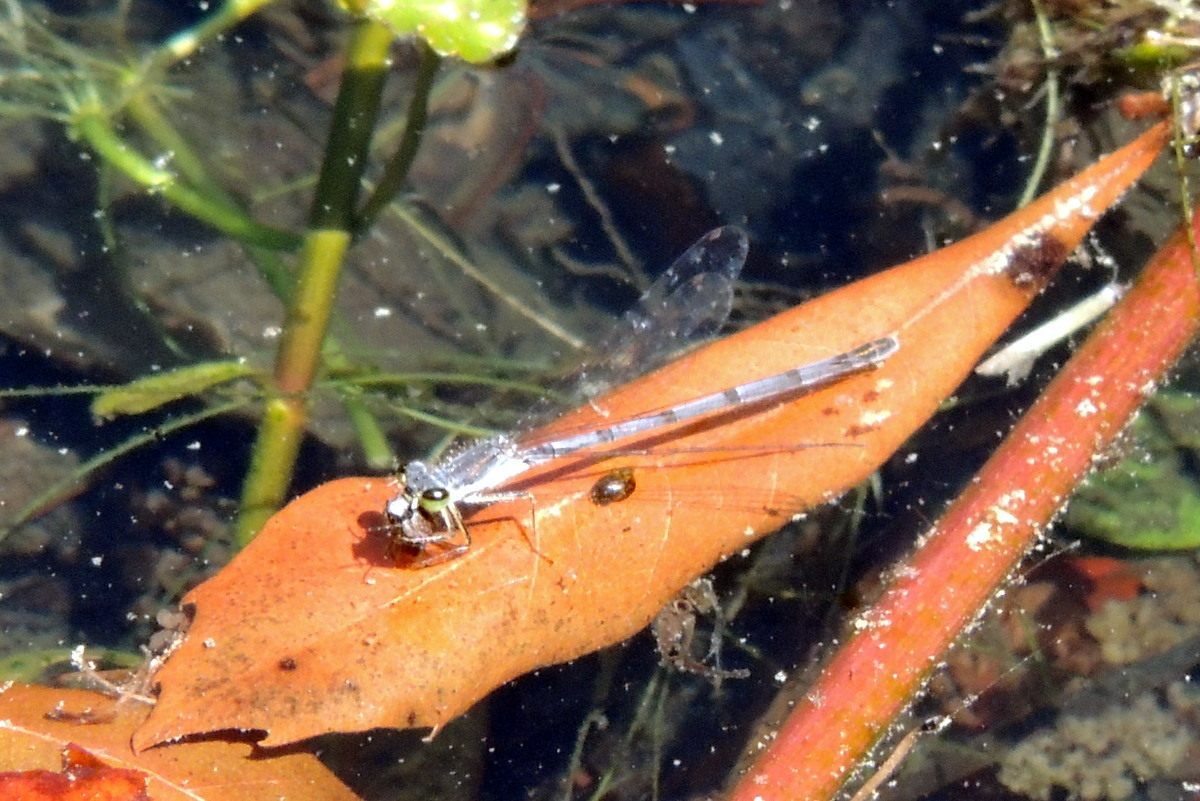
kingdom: Animalia
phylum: Arthropoda
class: Insecta
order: Odonata
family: Coenagrionidae
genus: Ischnura
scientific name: Ischnura posita
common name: Fragile forktail
